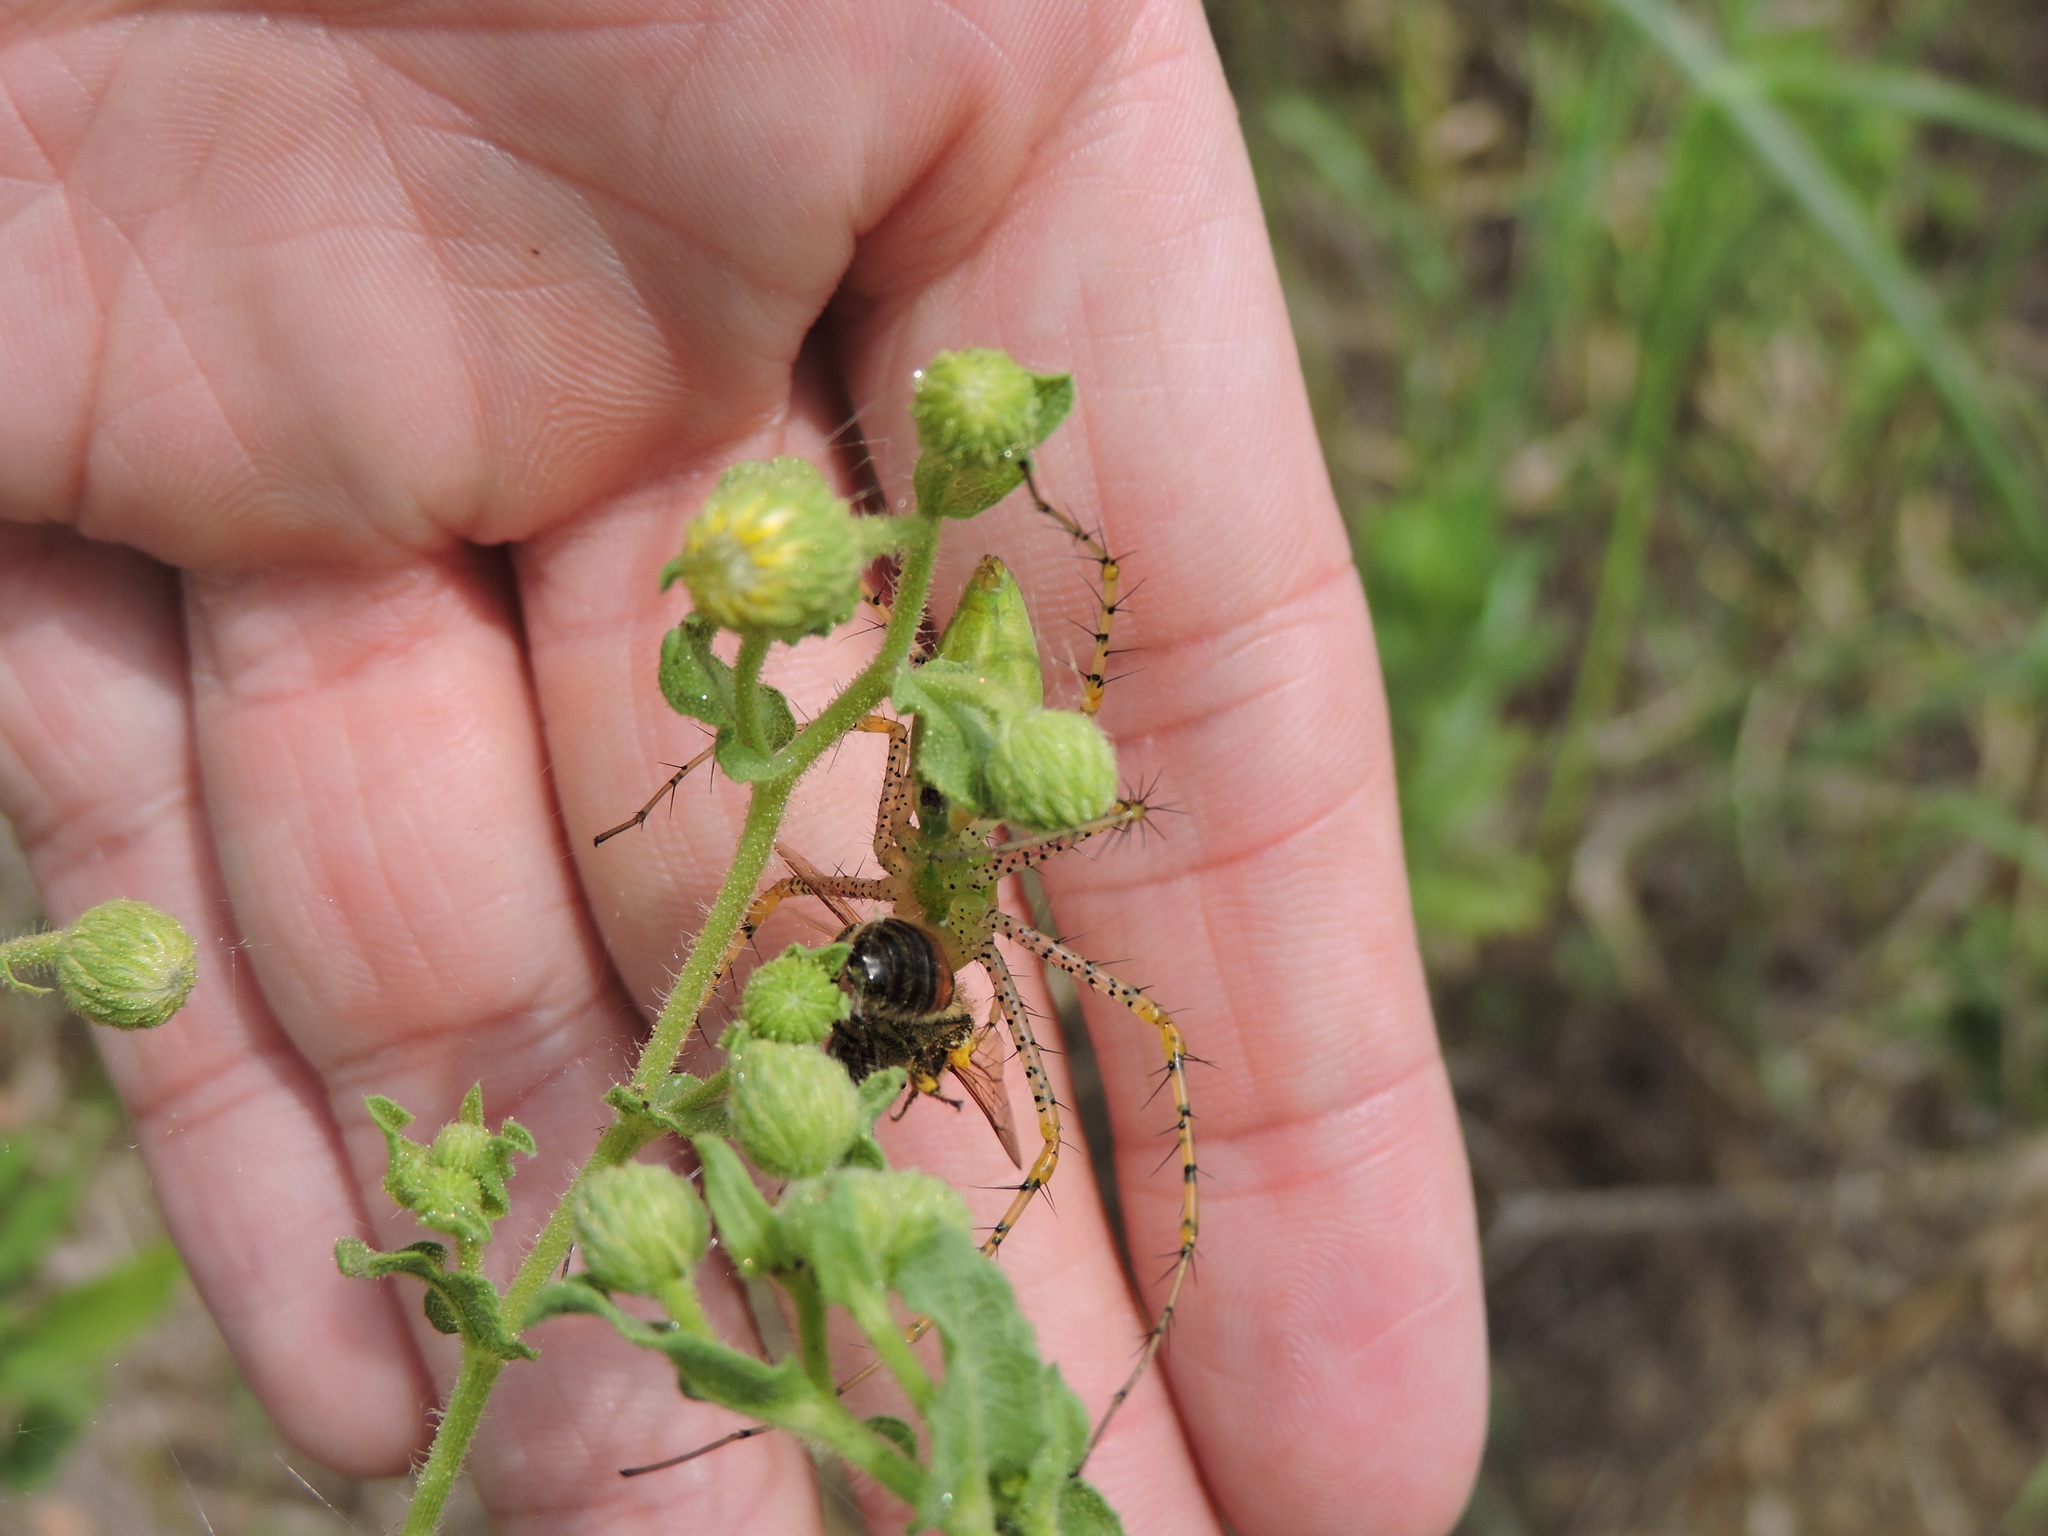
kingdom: Animalia
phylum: Arthropoda
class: Arachnida
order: Araneae
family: Oxyopidae
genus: Peucetia
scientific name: Peucetia viridans
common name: Lynx spiders
